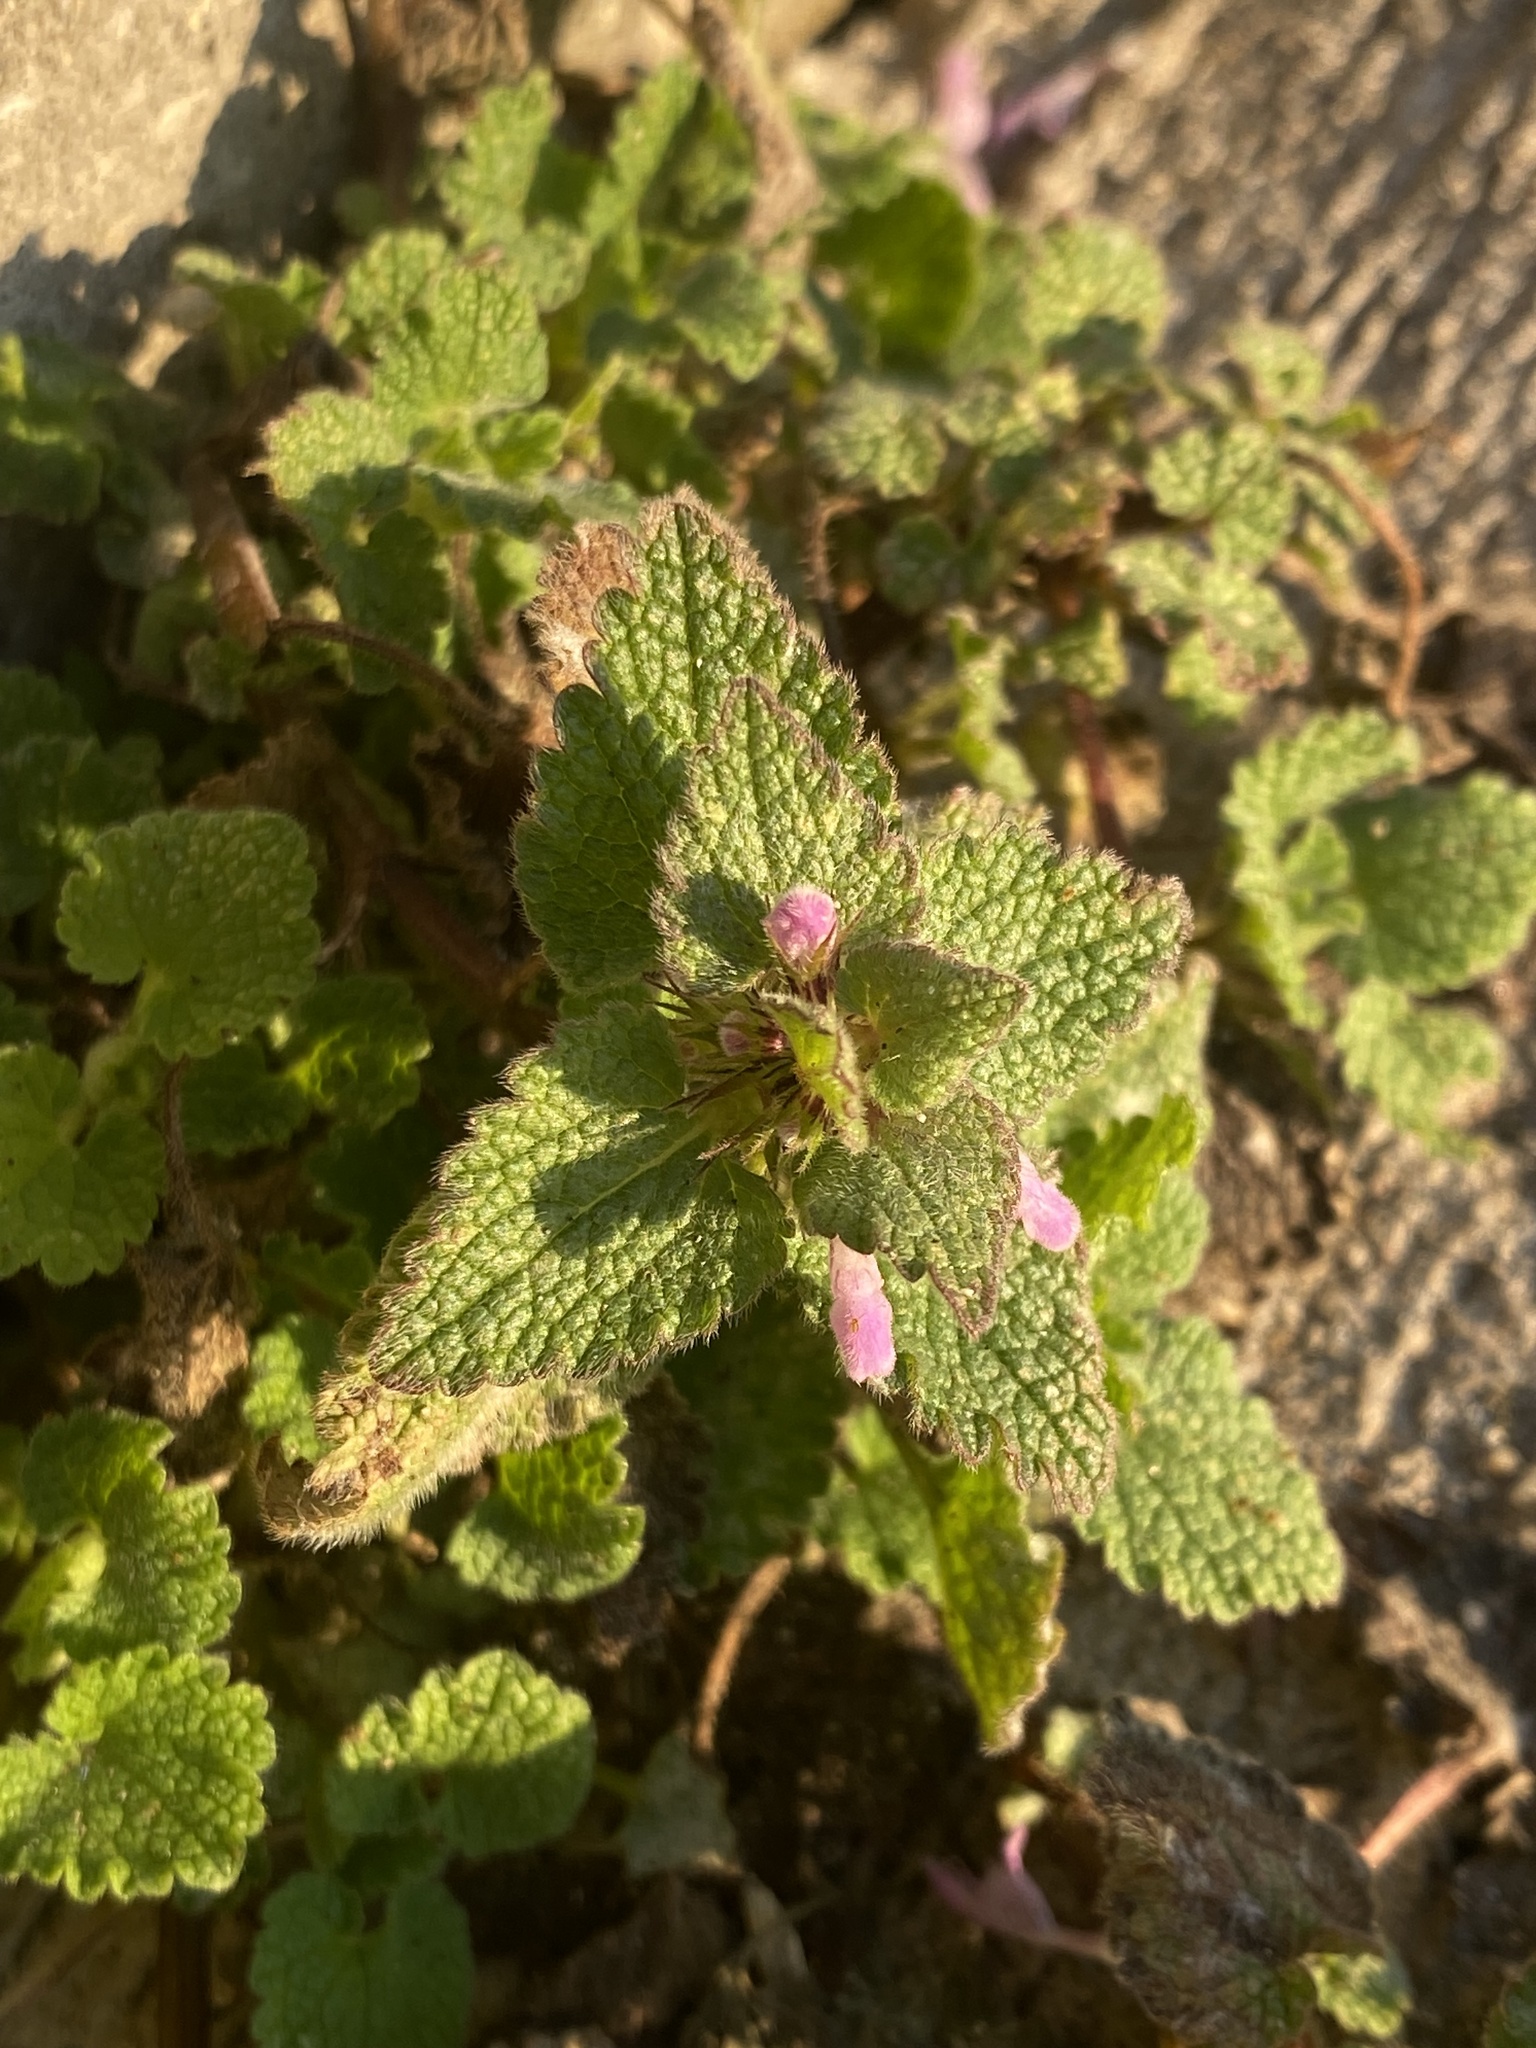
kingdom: Plantae
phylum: Tracheophyta
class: Magnoliopsida
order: Lamiales
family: Lamiaceae
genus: Lamium
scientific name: Lamium purpureum
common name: Red dead-nettle
